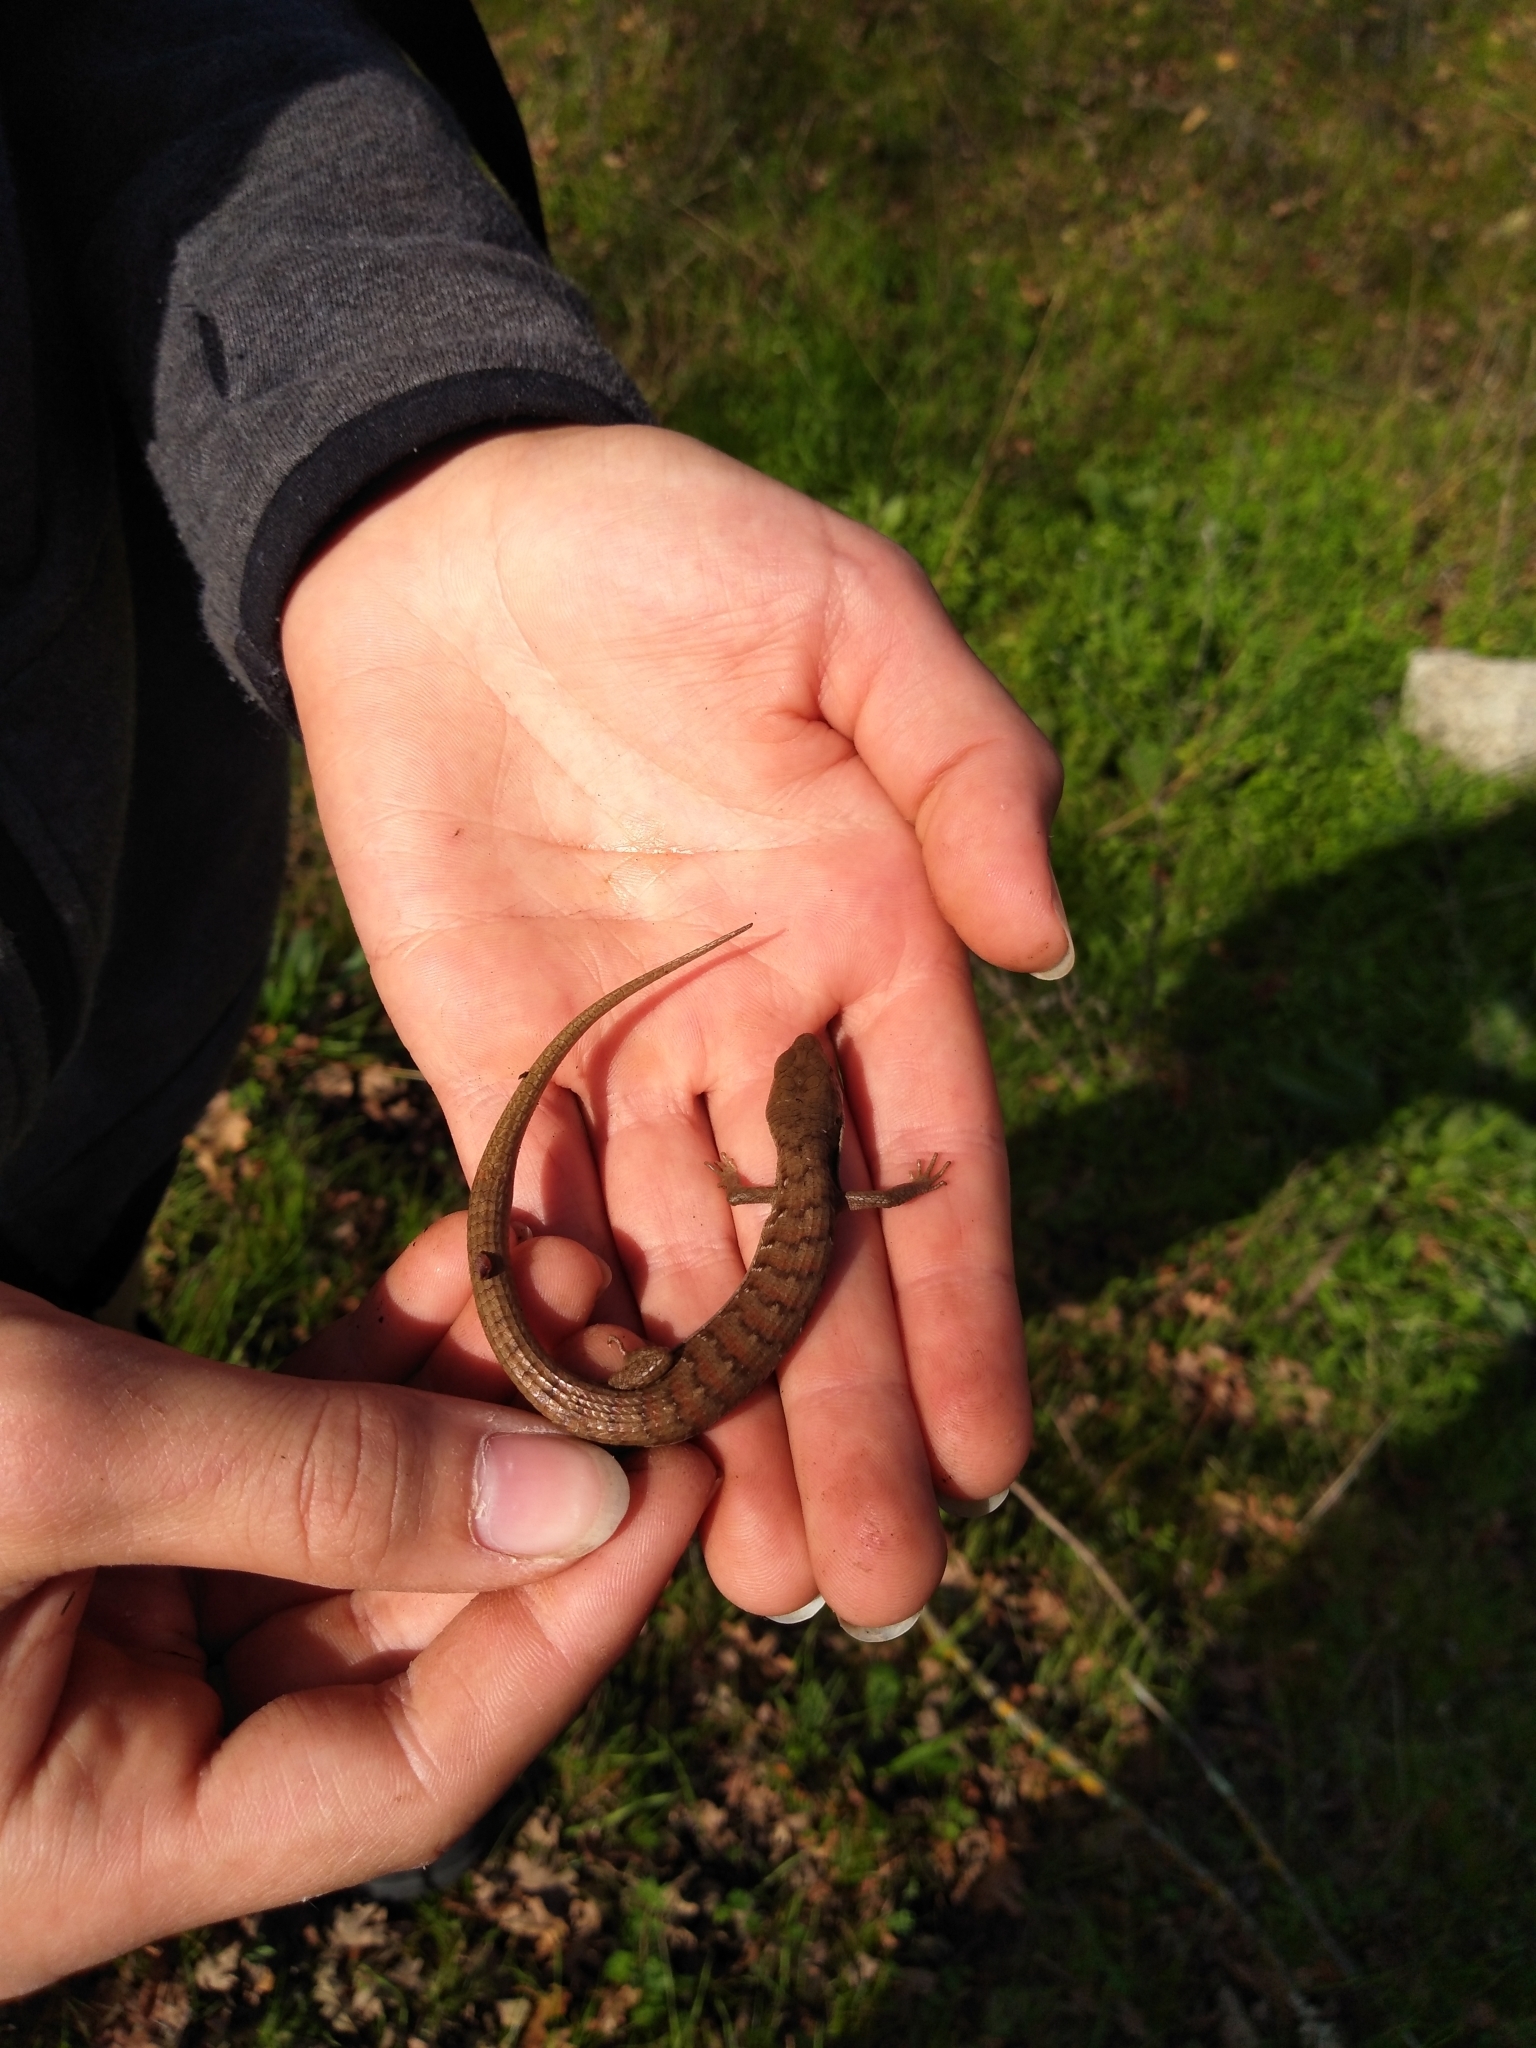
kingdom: Animalia
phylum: Chordata
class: Squamata
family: Anguidae
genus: Elgaria
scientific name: Elgaria multicarinata
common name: Southern alligator lizard
